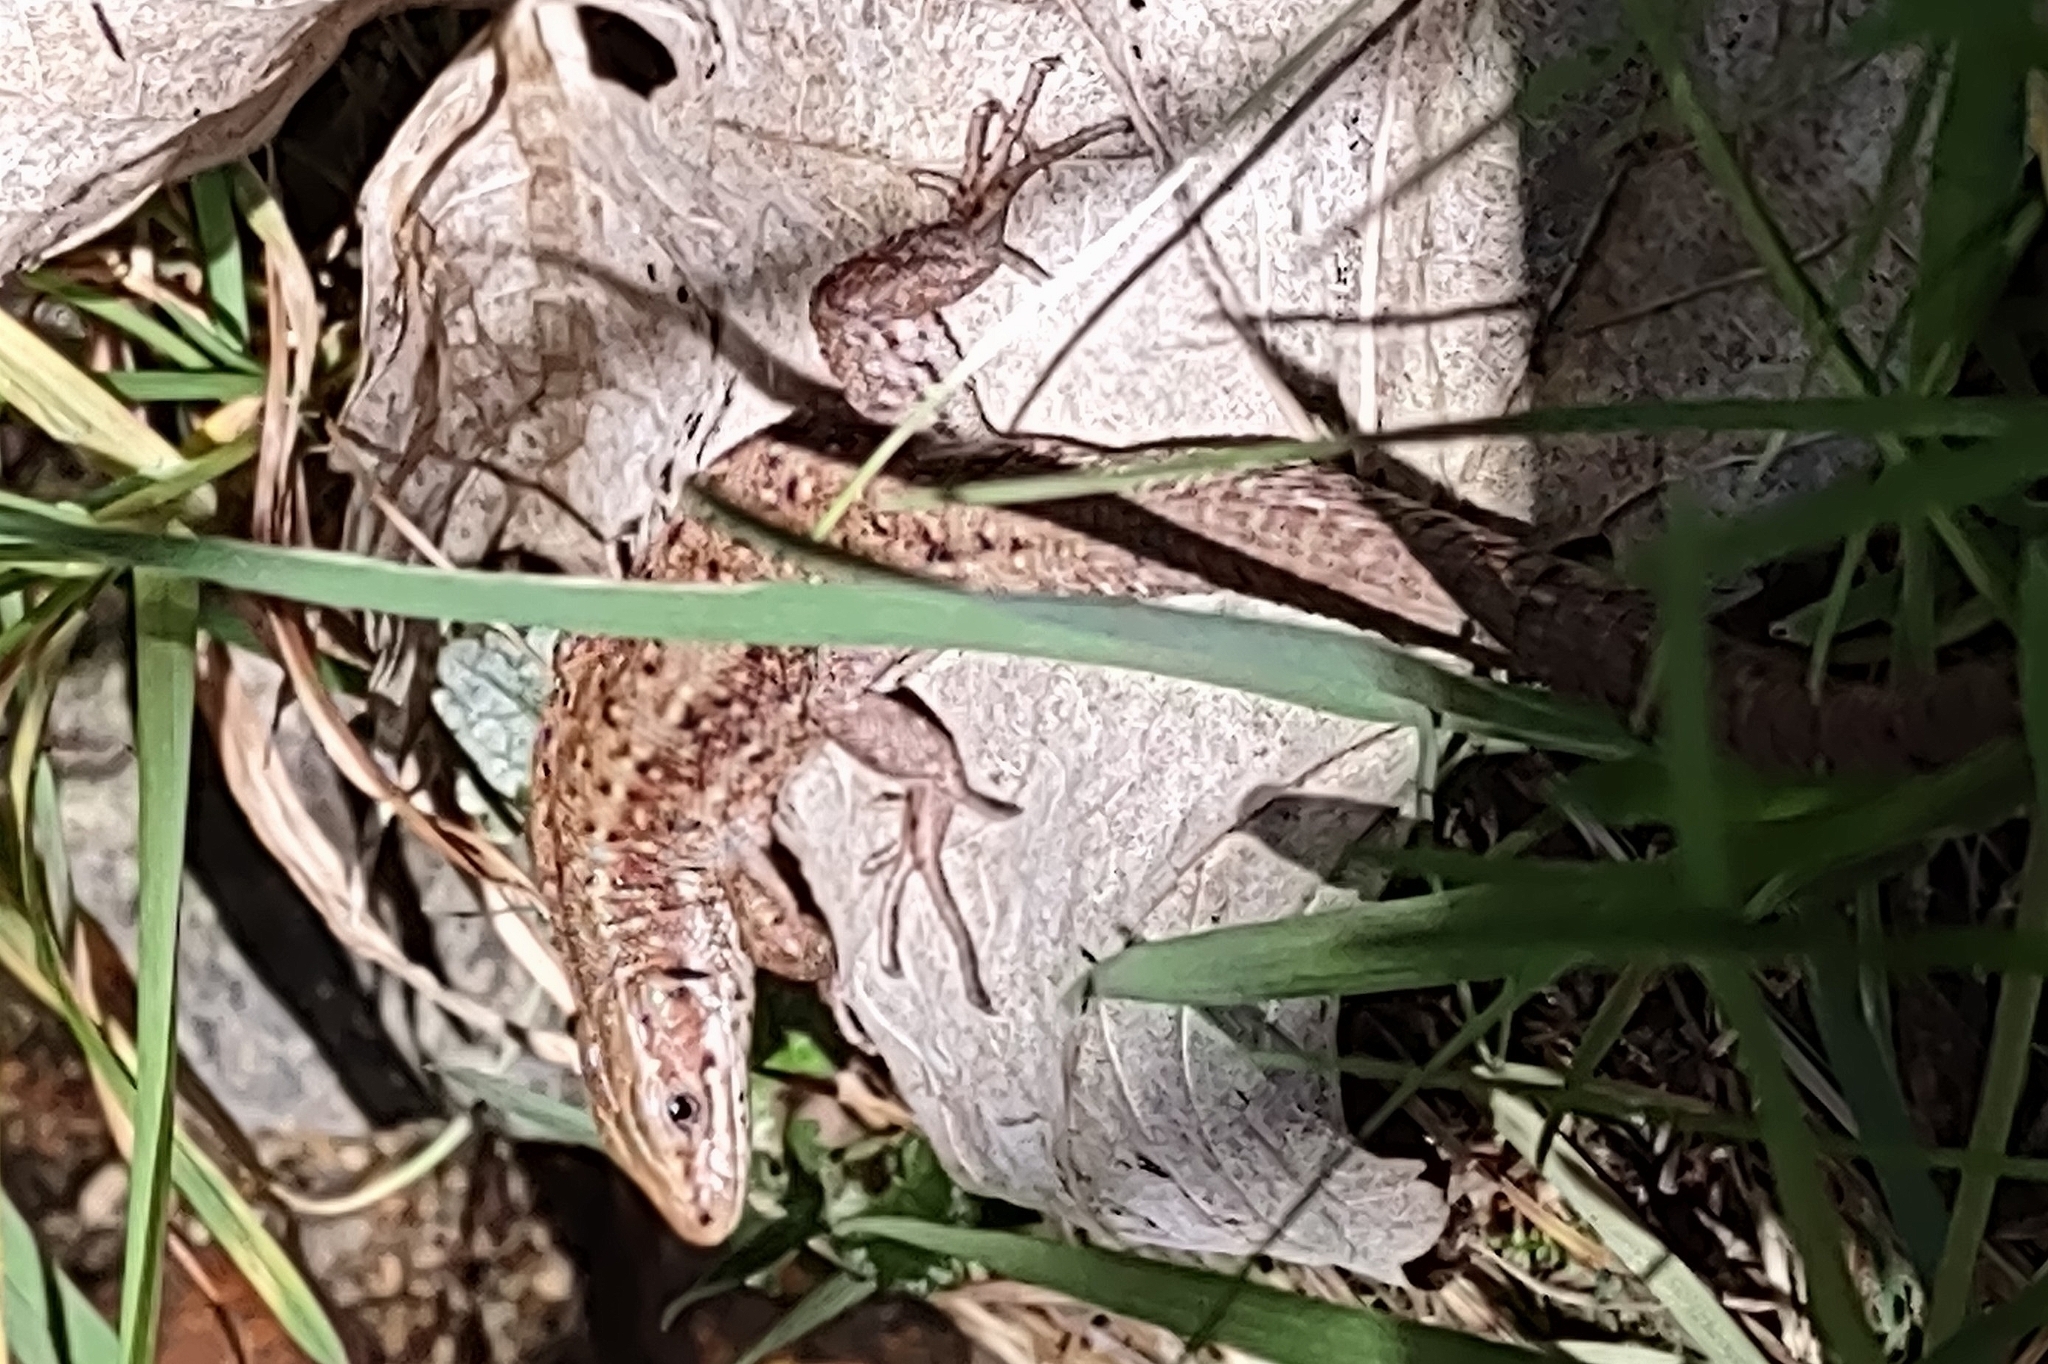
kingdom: Animalia
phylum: Chordata
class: Squamata
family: Lacertidae
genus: Zootoca
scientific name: Zootoca vivipara
